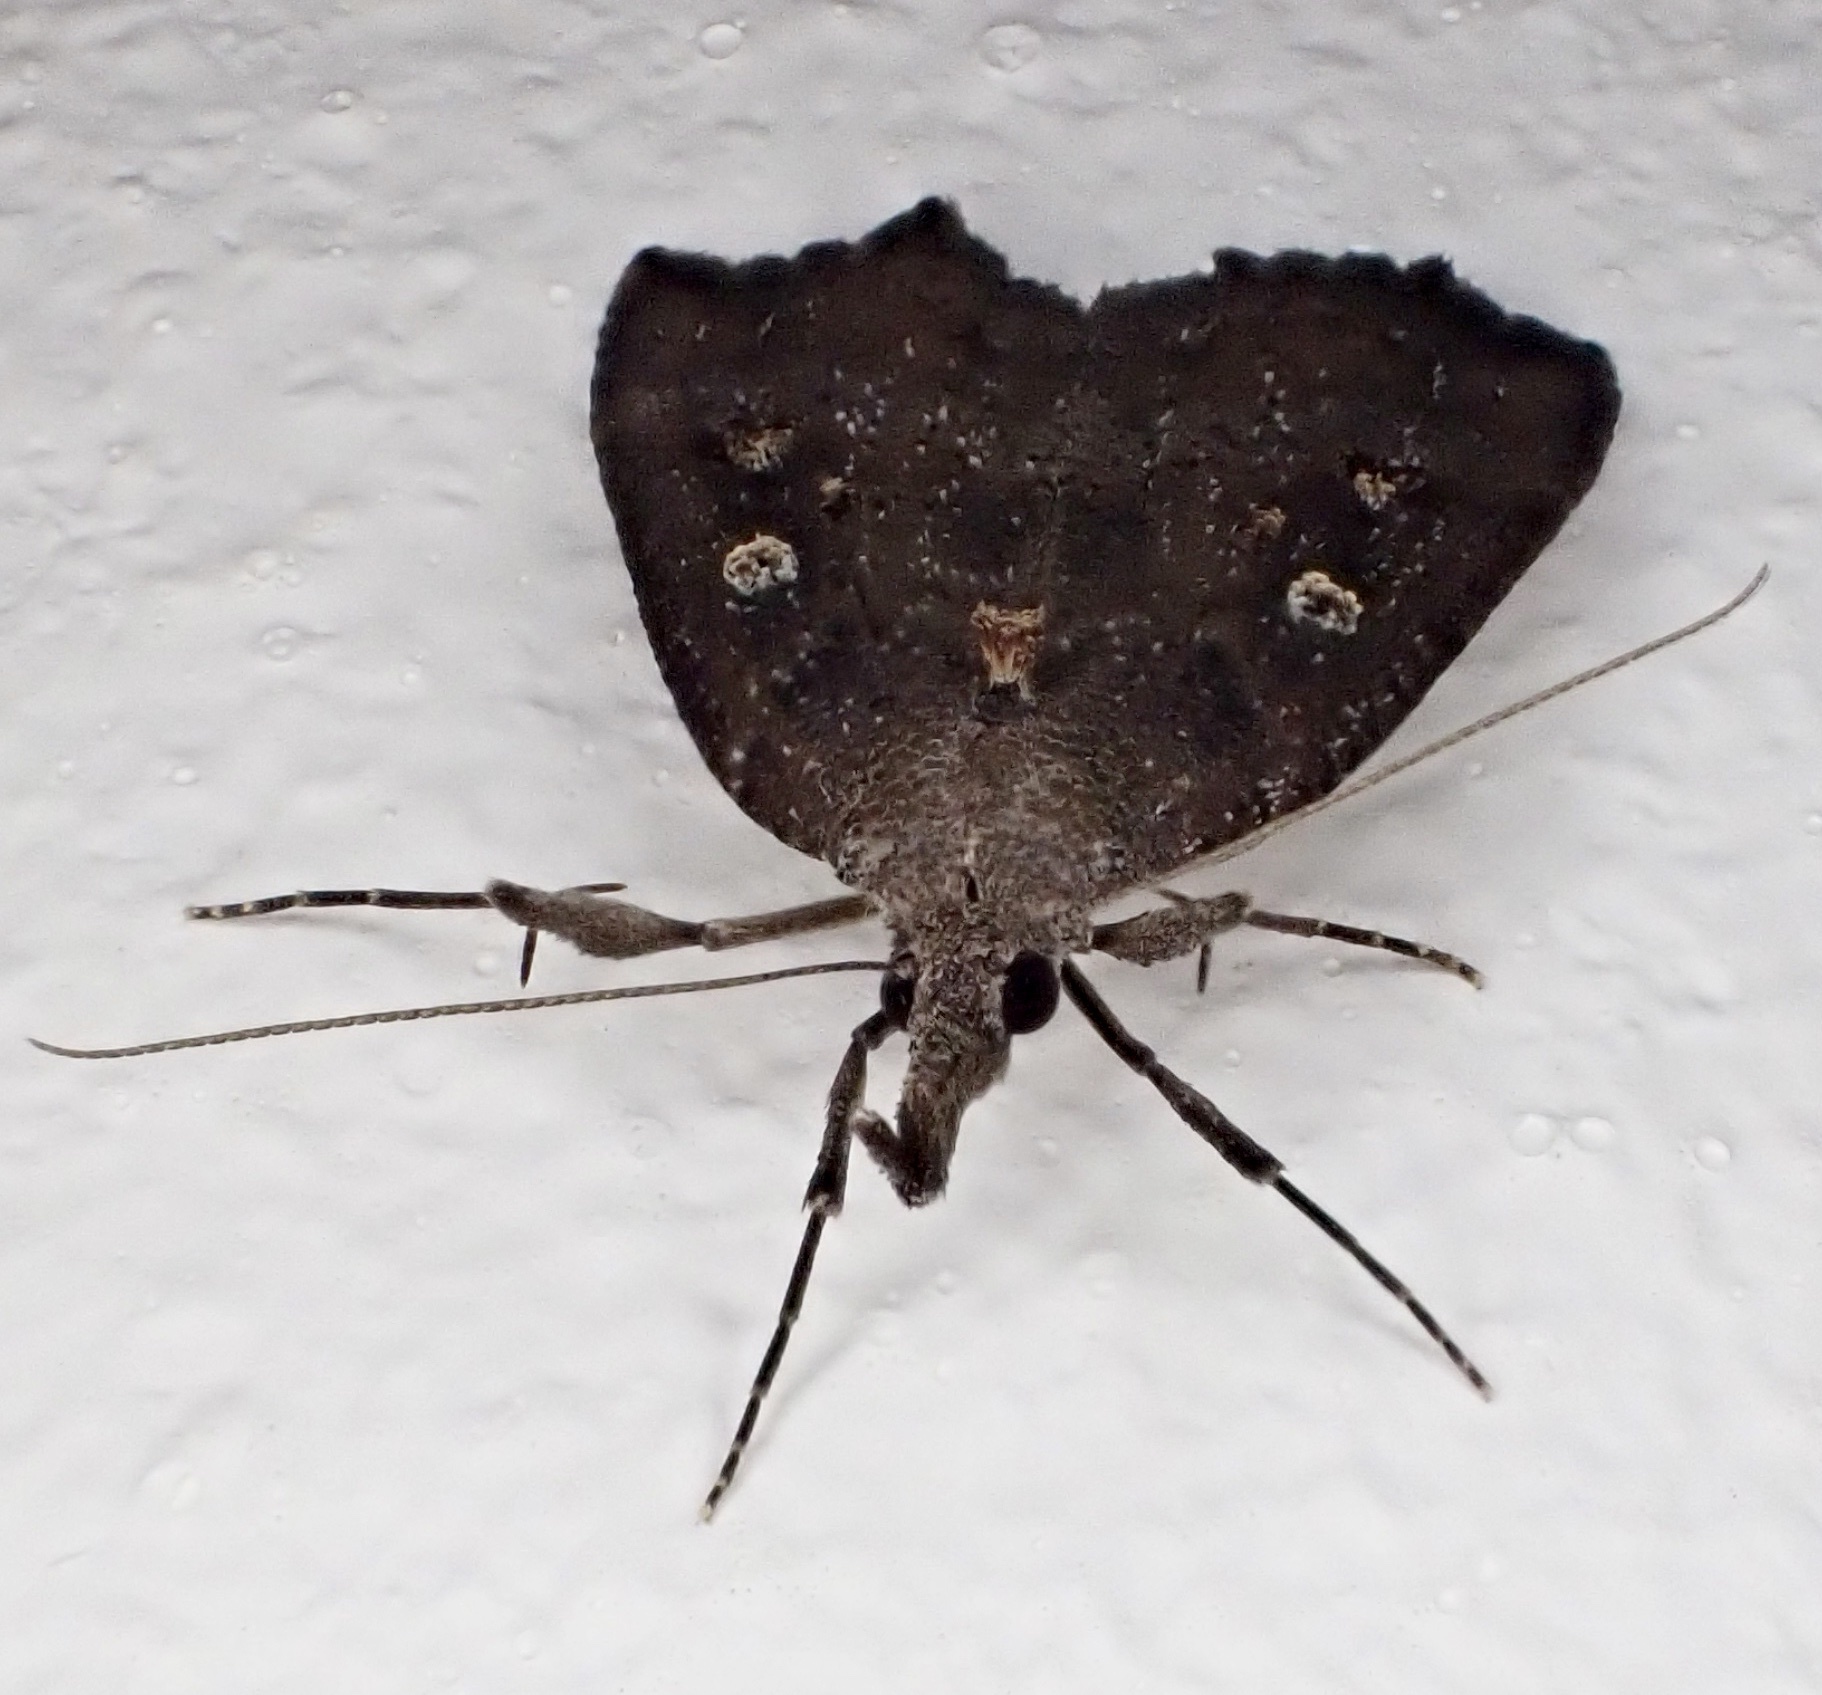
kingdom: Animalia
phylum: Arthropoda
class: Insecta
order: Lepidoptera
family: Erebidae
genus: Hypena
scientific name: Hypena rostralis
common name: Buttoned snout
